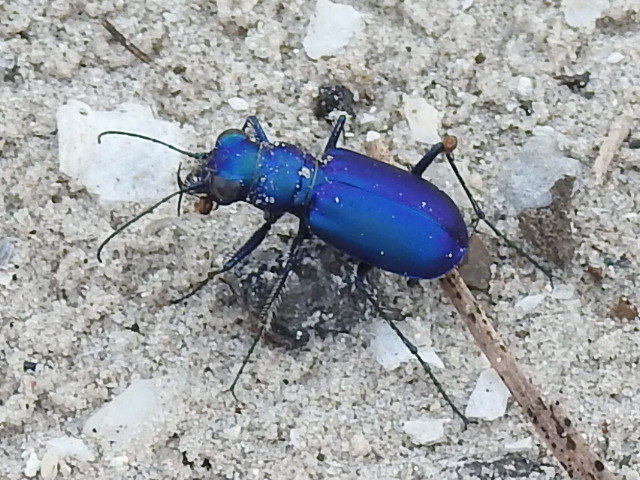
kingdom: Animalia
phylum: Arthropoda
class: Insecta
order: Coleoptera
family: Carabidae
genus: Cicindela
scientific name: Cicindela scutellaris
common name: Festive tiger beetle
